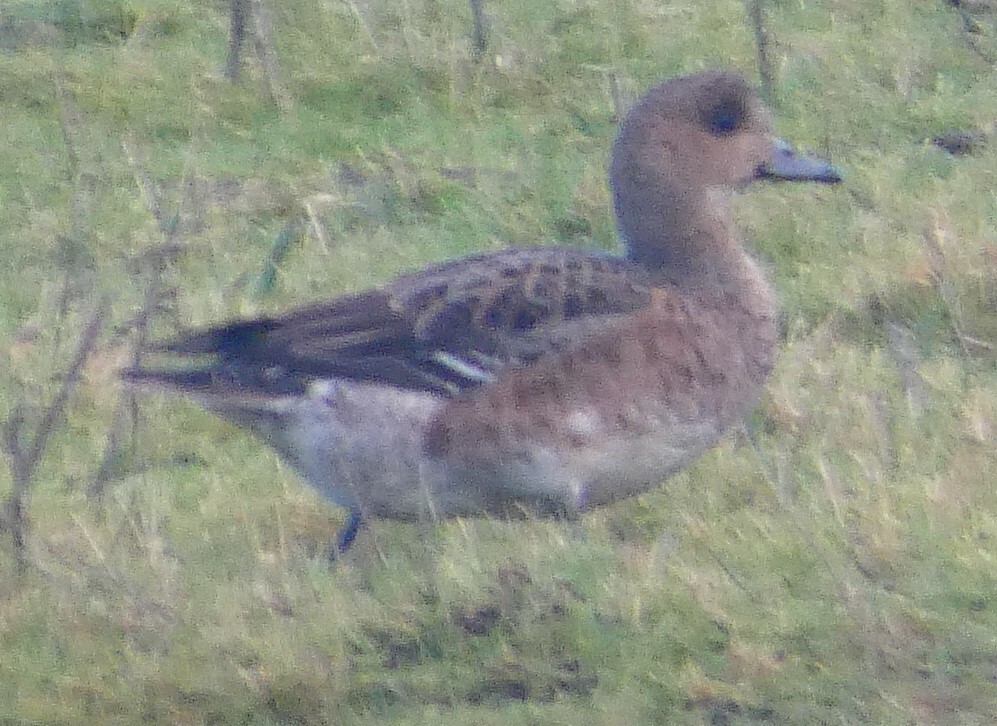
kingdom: Animalia
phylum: Chordata
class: Aves
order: Anseriformes
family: Anatidae
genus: Mareca
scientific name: Mareca penelope
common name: Eurasian wigeon
